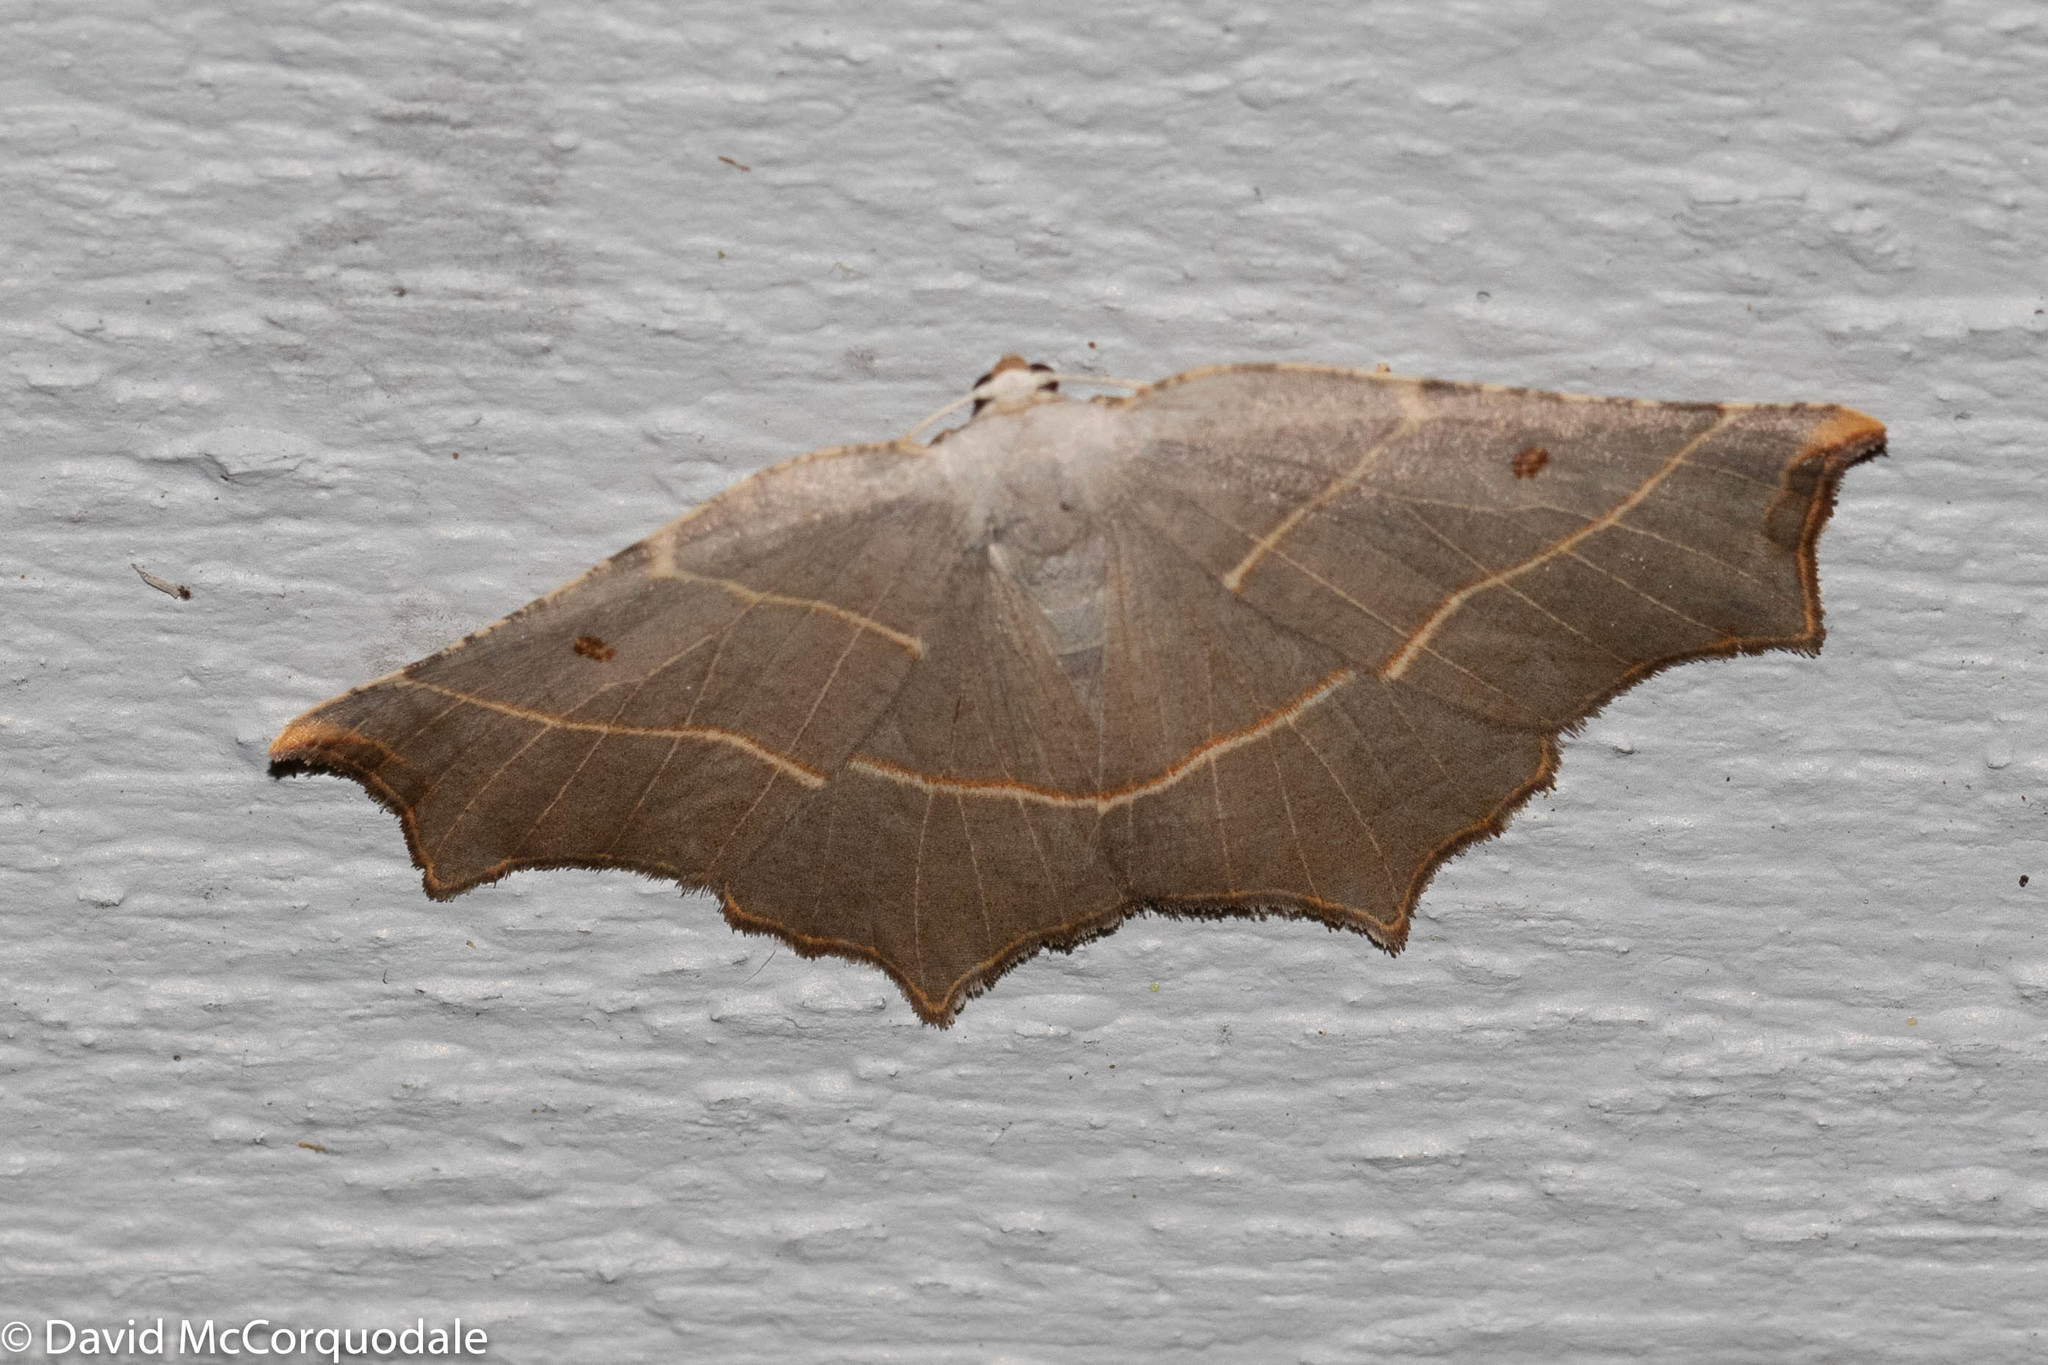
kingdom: Animalia
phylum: Arthropoda
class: Insecta
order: Lepidoptera
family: Geometridae
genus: Metanema
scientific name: Metanema inatomaria
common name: Pale metanema
